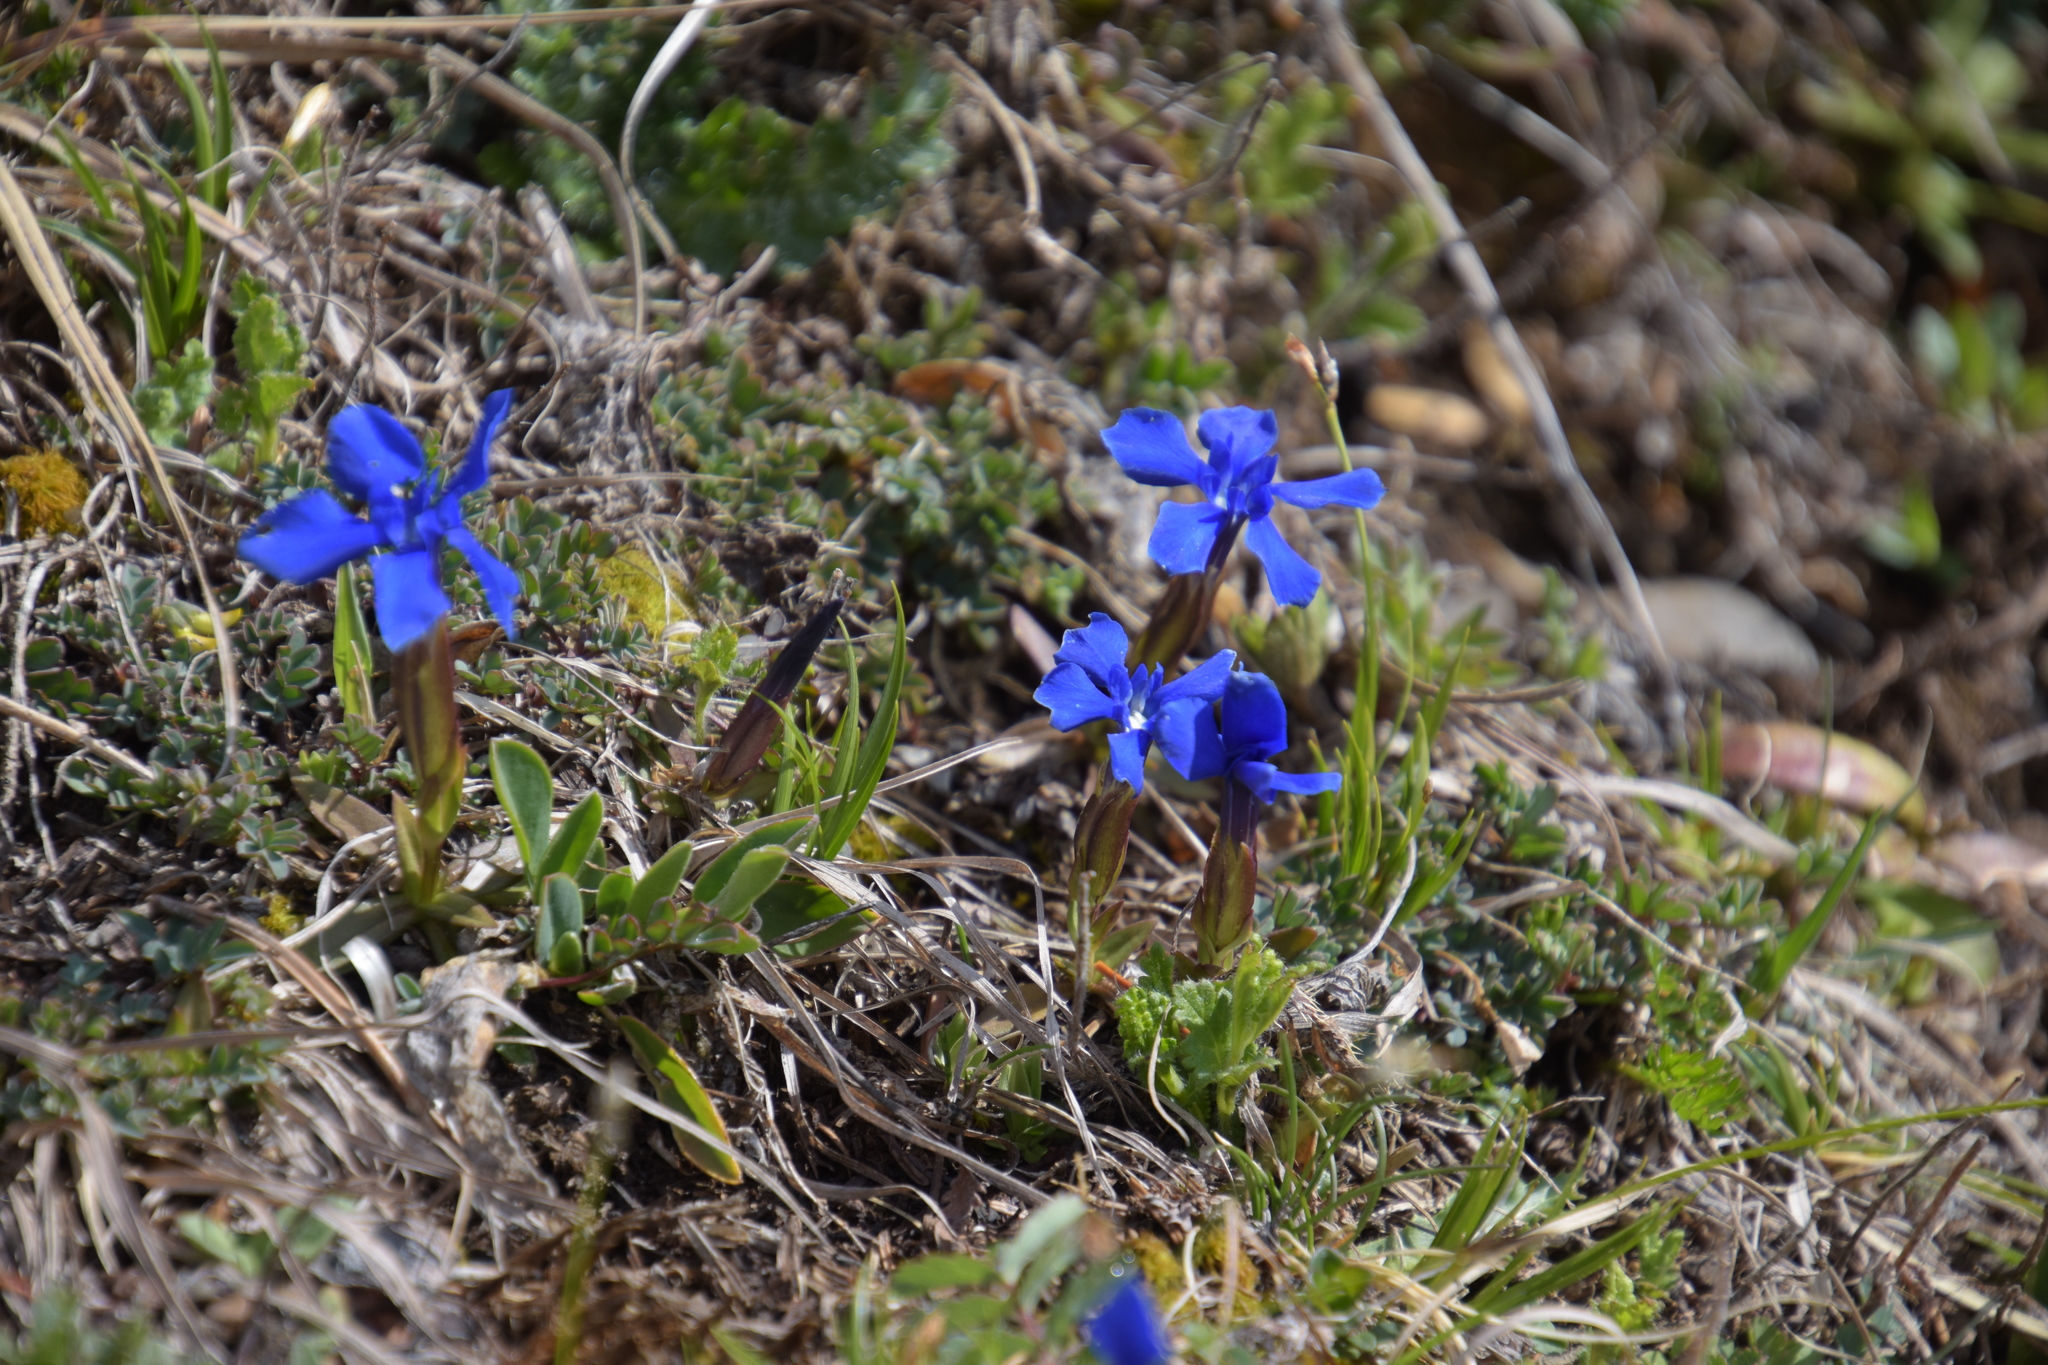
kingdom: Plantae
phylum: Tracheophyta
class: Magnoliopsida
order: Gentianales
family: Gentianaceae
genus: Gentiana
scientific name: Gentiana verna
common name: Spring gentian
